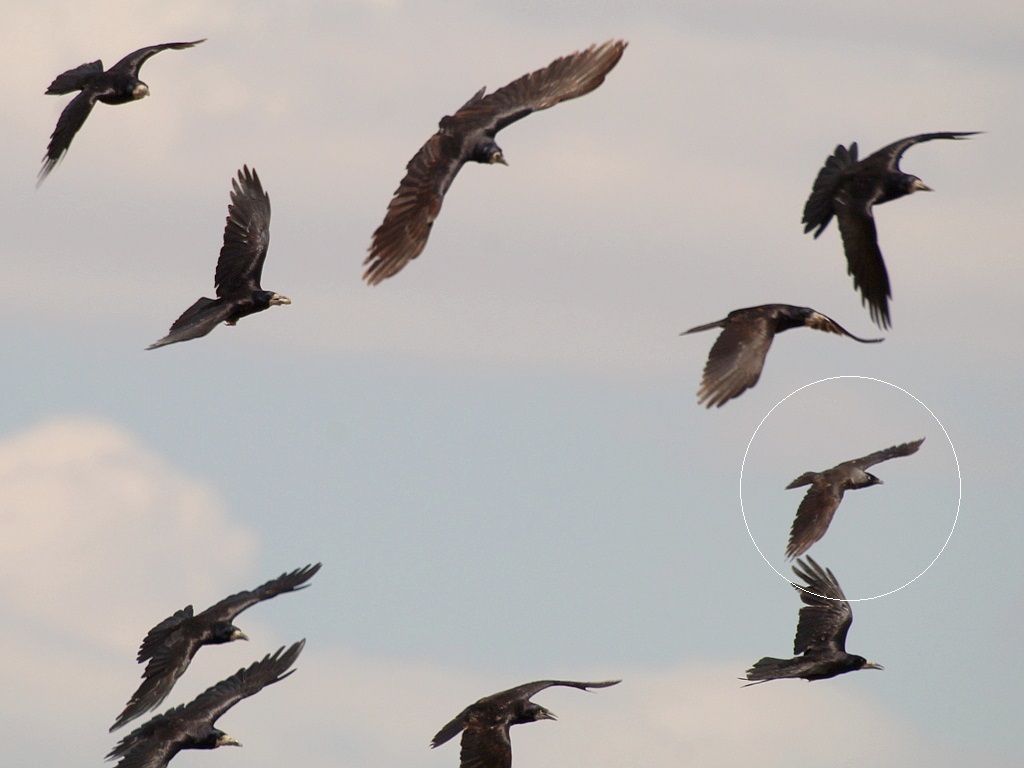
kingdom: Animalia
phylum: Chordata
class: Aves
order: Passeriformes
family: Corvidae
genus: Coloeus
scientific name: Coloeus monedula
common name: Western jackdaw
